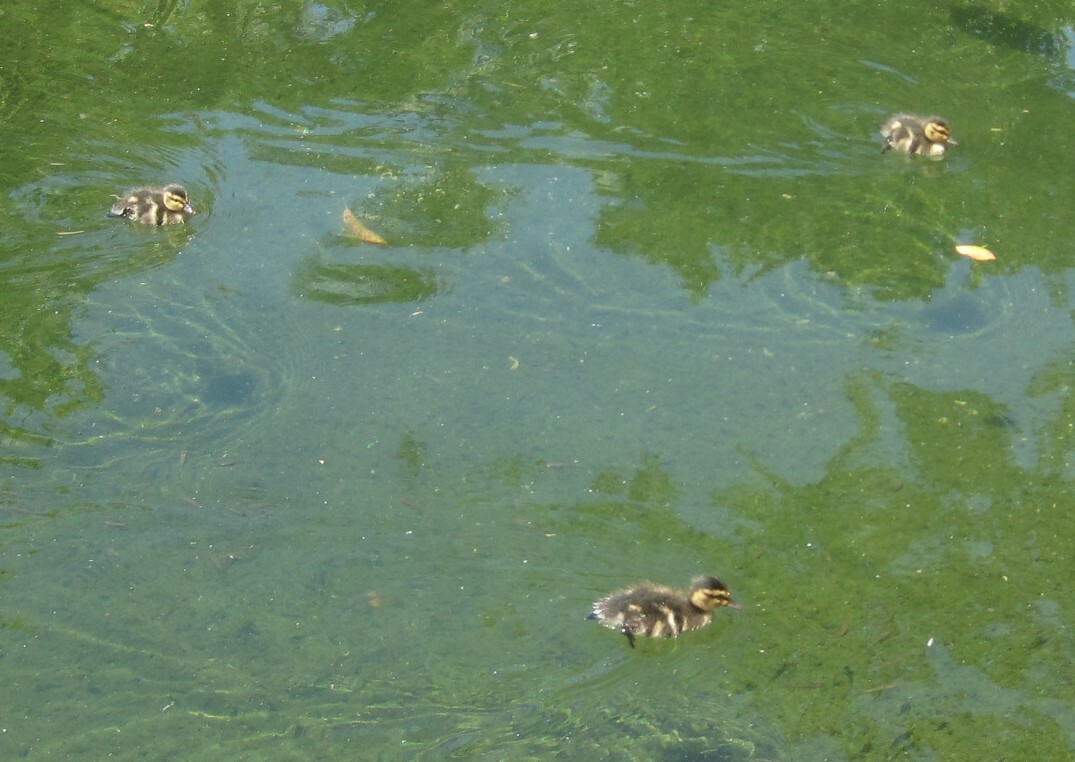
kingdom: Animalia
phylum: Chordata
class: Aves
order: Anseriformes
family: Anatidae
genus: Anas
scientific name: Anas platyrhynchos
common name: Mallard
